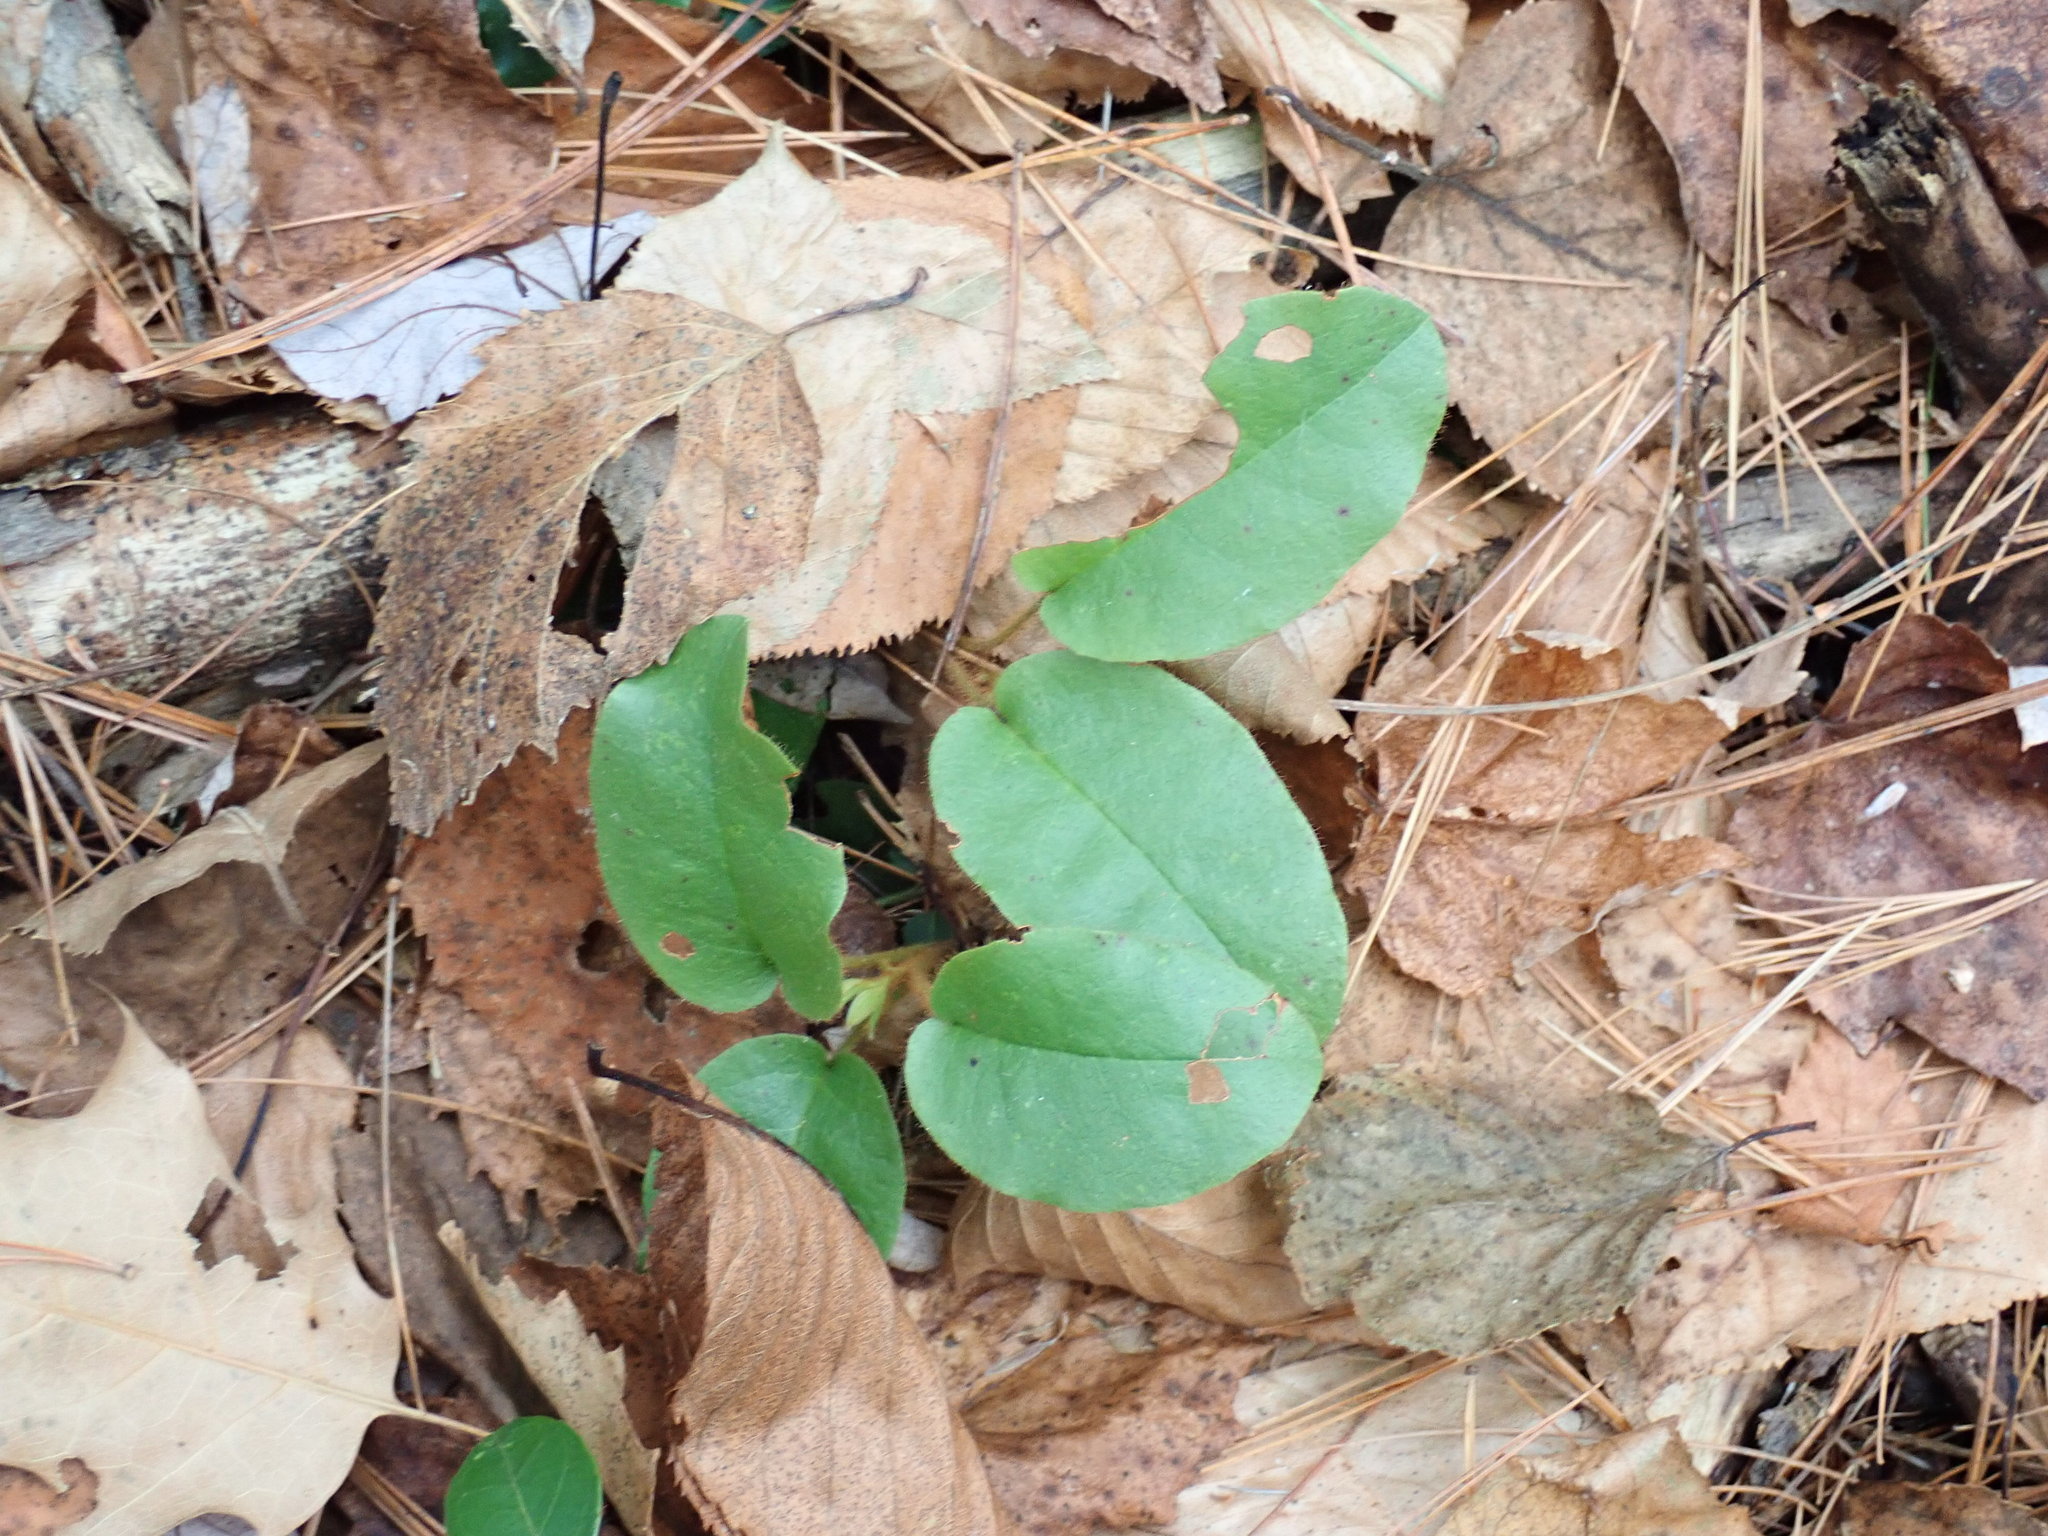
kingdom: Plantae
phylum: Tracheophyta
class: Magnoliopsida
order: Ericales
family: Ericaceae
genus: Epigaea
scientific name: Epigaea repens
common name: Gravelroot
